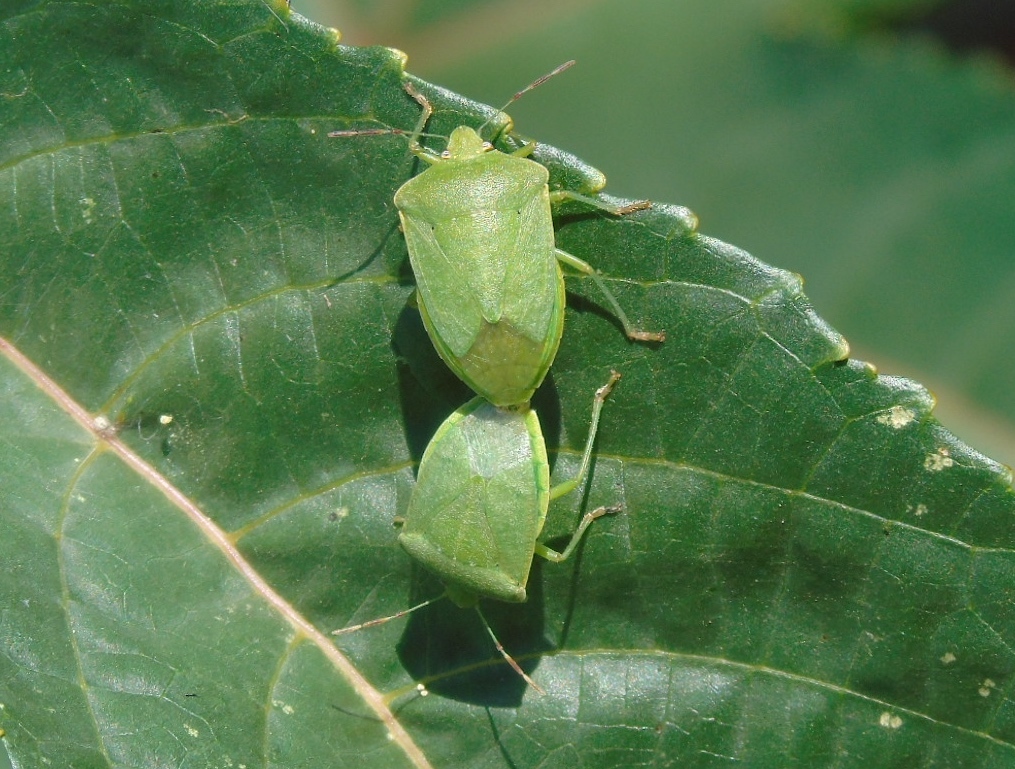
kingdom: Animalia
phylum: Arthropoda
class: Insecta
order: Hemiptera
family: Pentatomidae
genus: Nezara
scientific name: Nezara viridula
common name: Southern green stink bug
